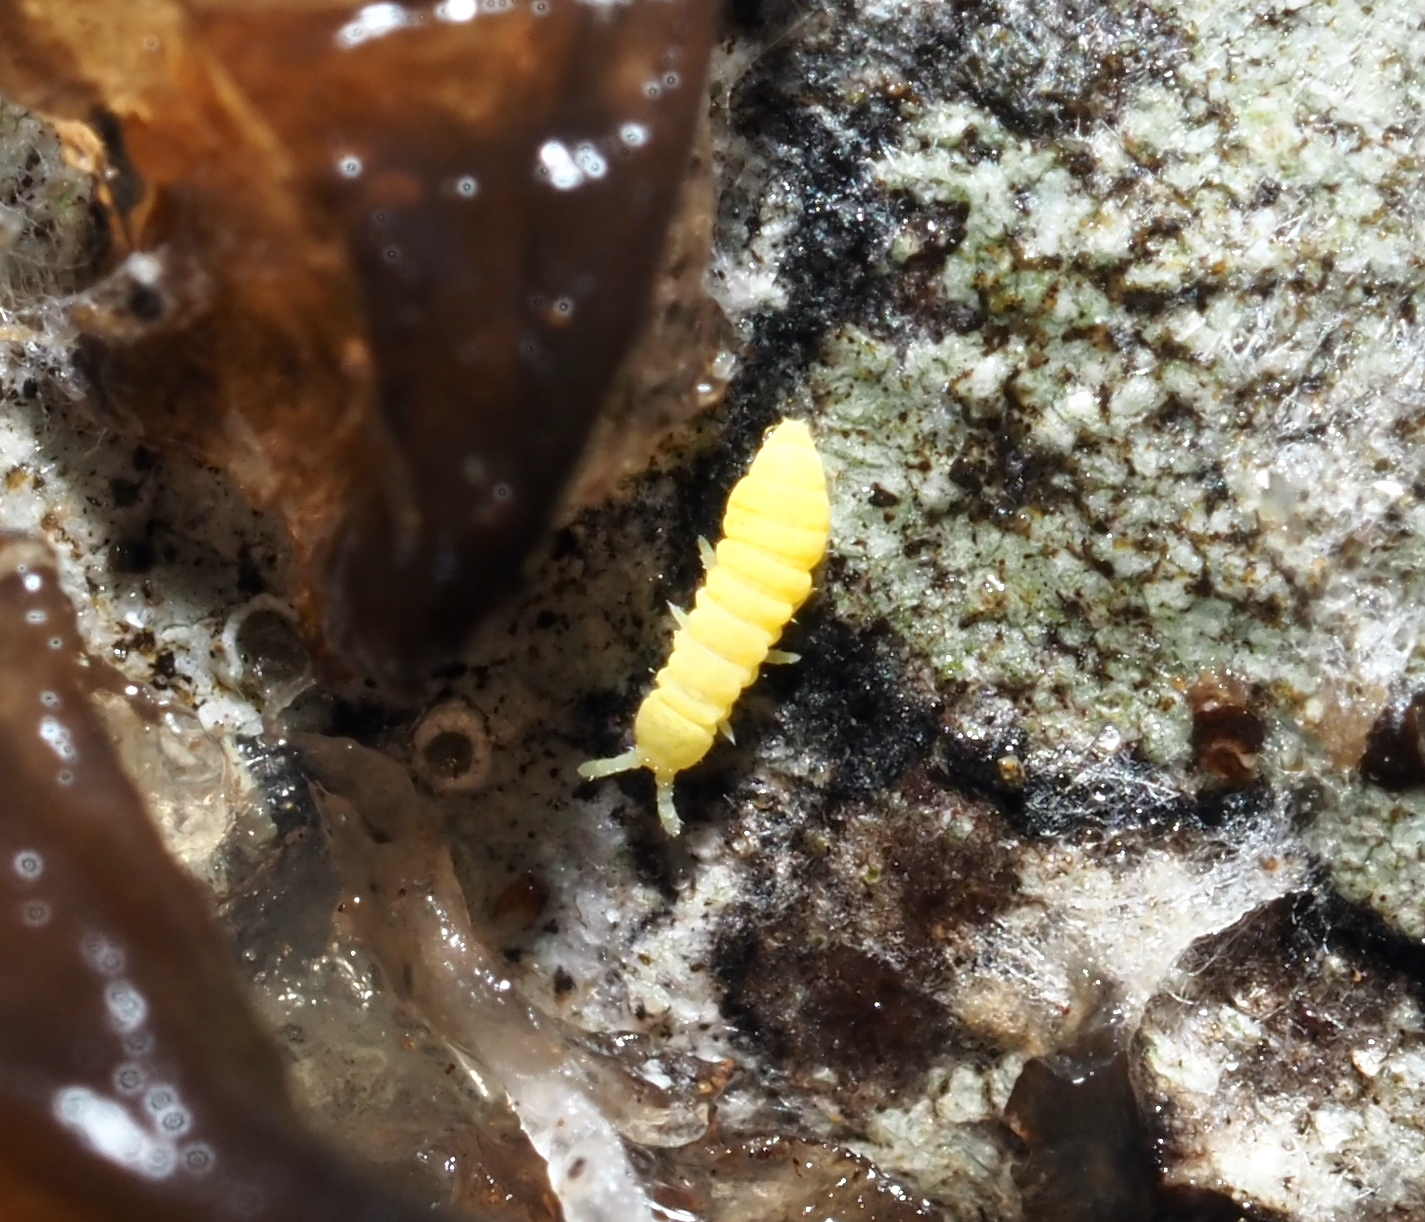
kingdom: Animalia
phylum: Arthropoda
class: Collembola
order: Poduromorpha
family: Onychiuridae
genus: Hymenaphorura
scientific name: Hymenaphorura cocklei
